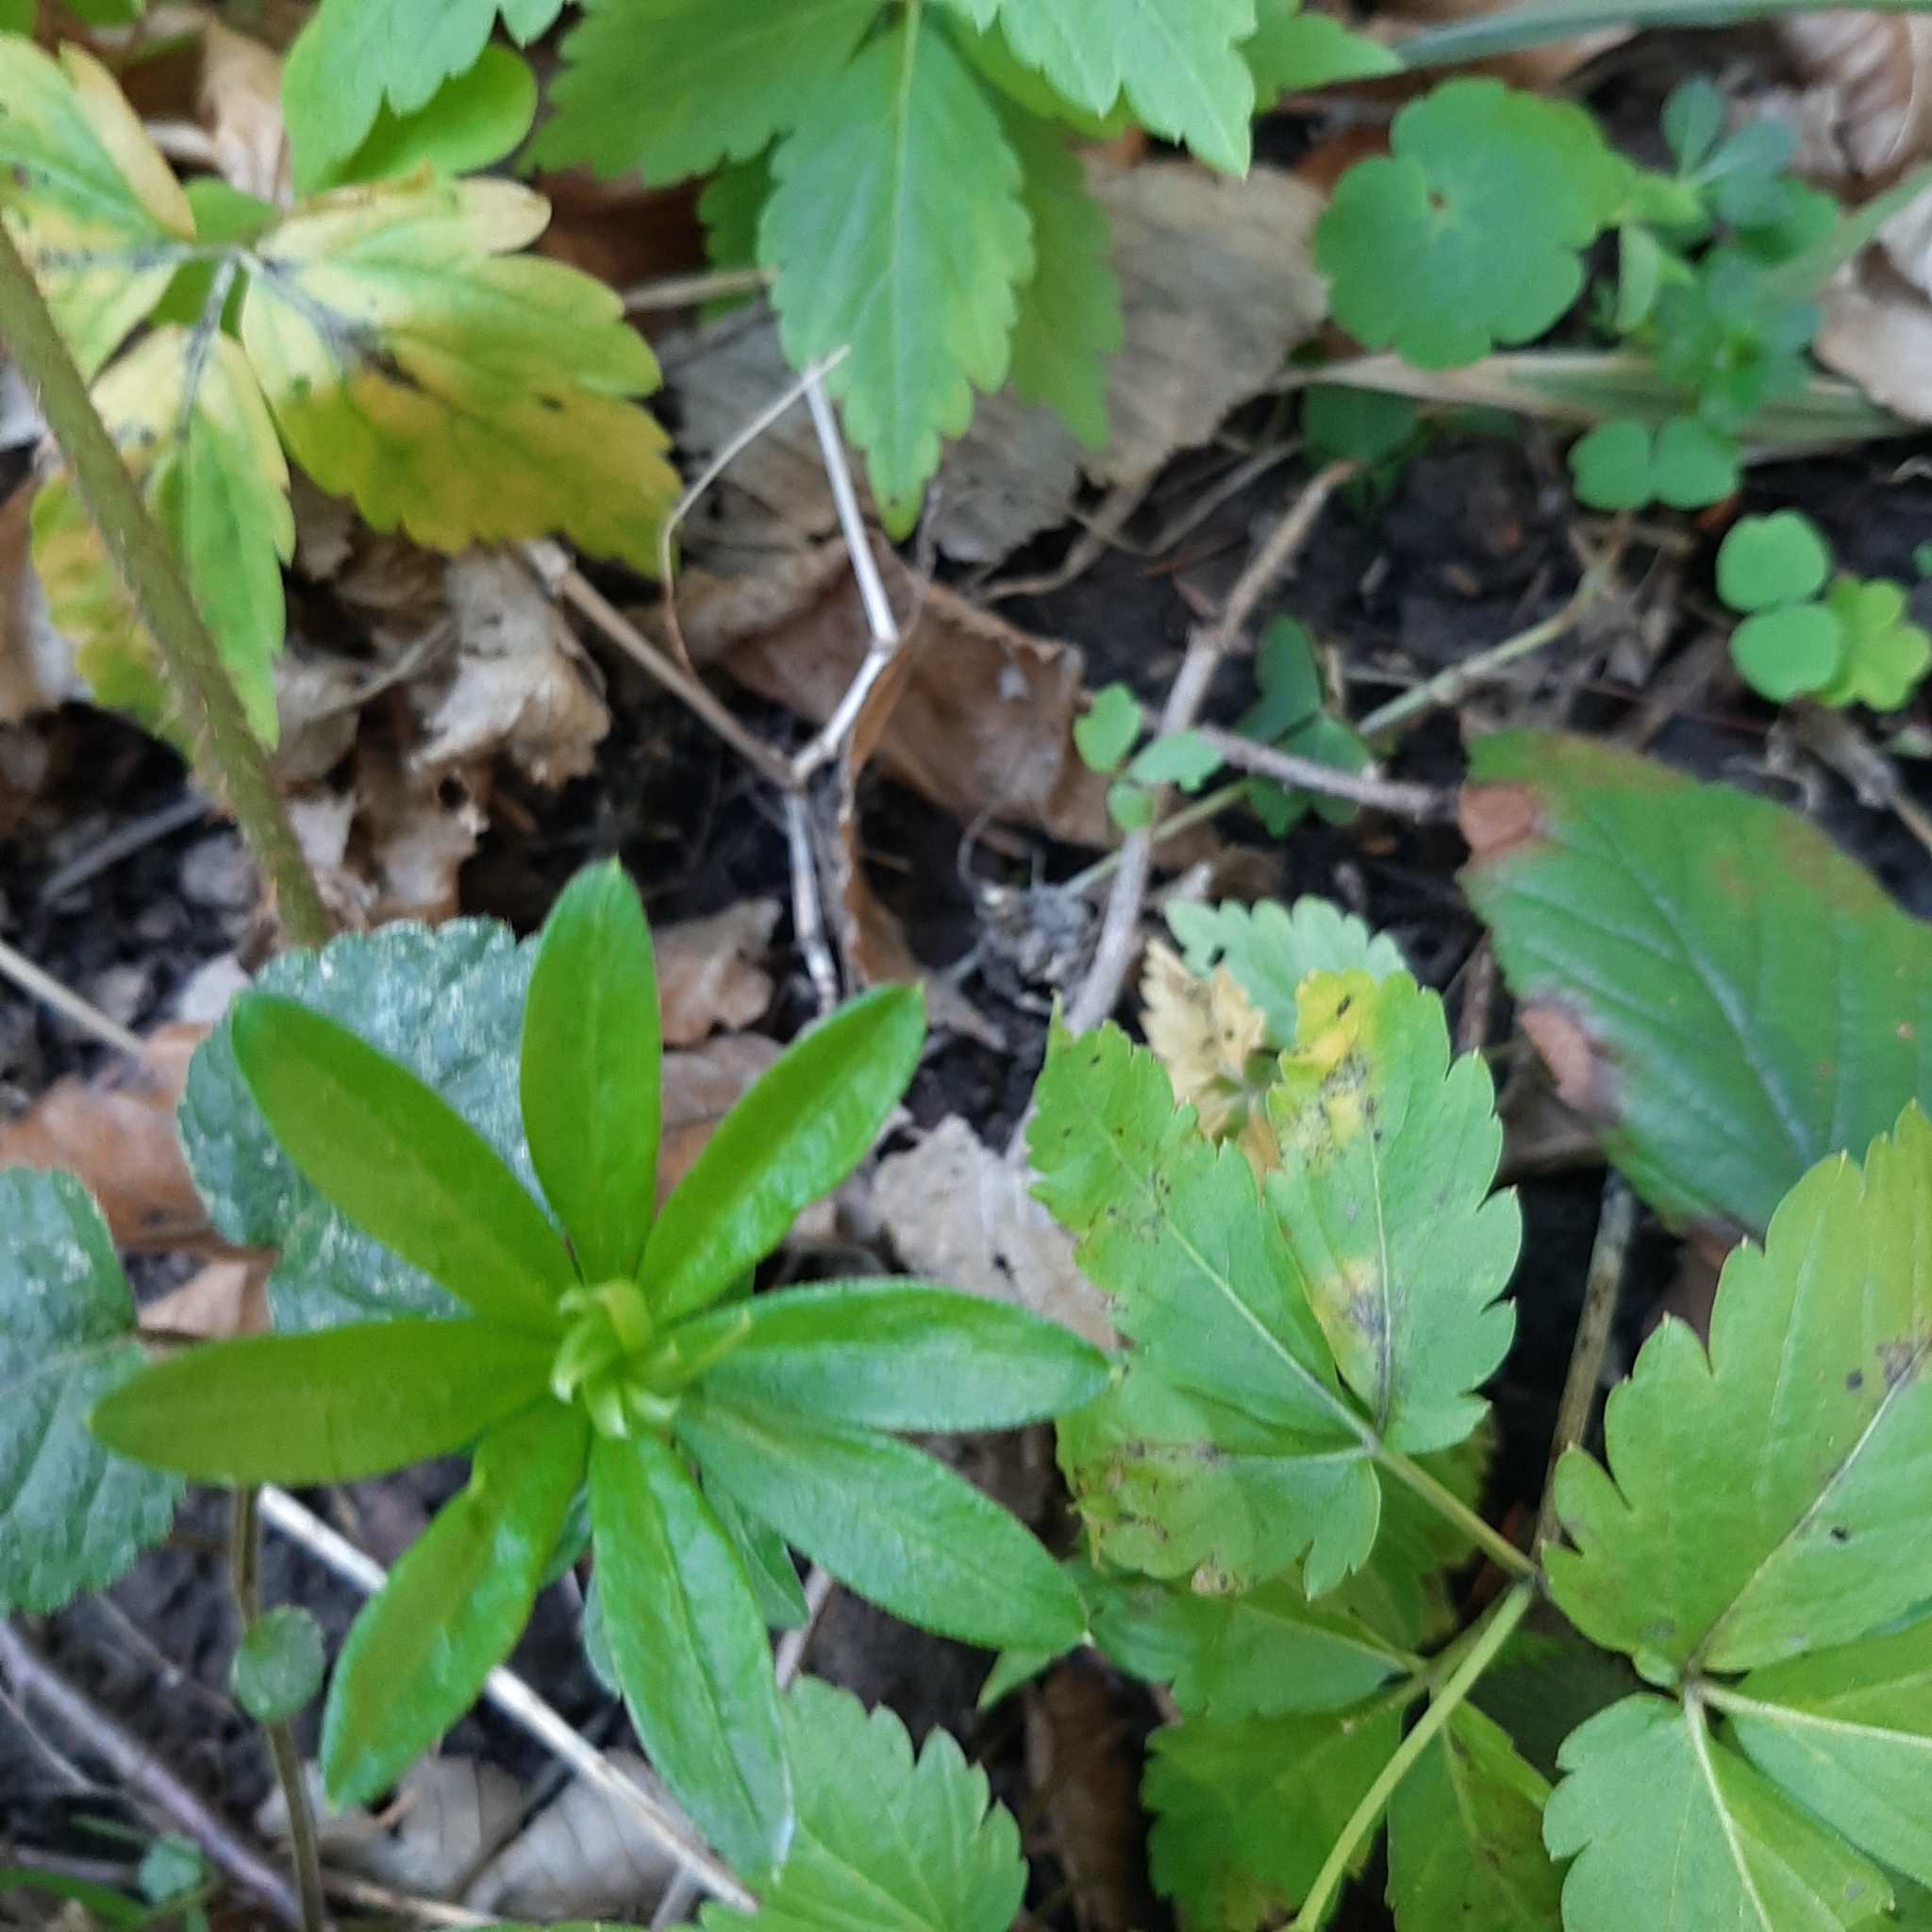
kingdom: Plantae
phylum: Tracheophyta
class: Magnoliopsida
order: Gentianales
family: Rubiaceae
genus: Galium
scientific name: Galium odoratum
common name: Sweet woodruff
